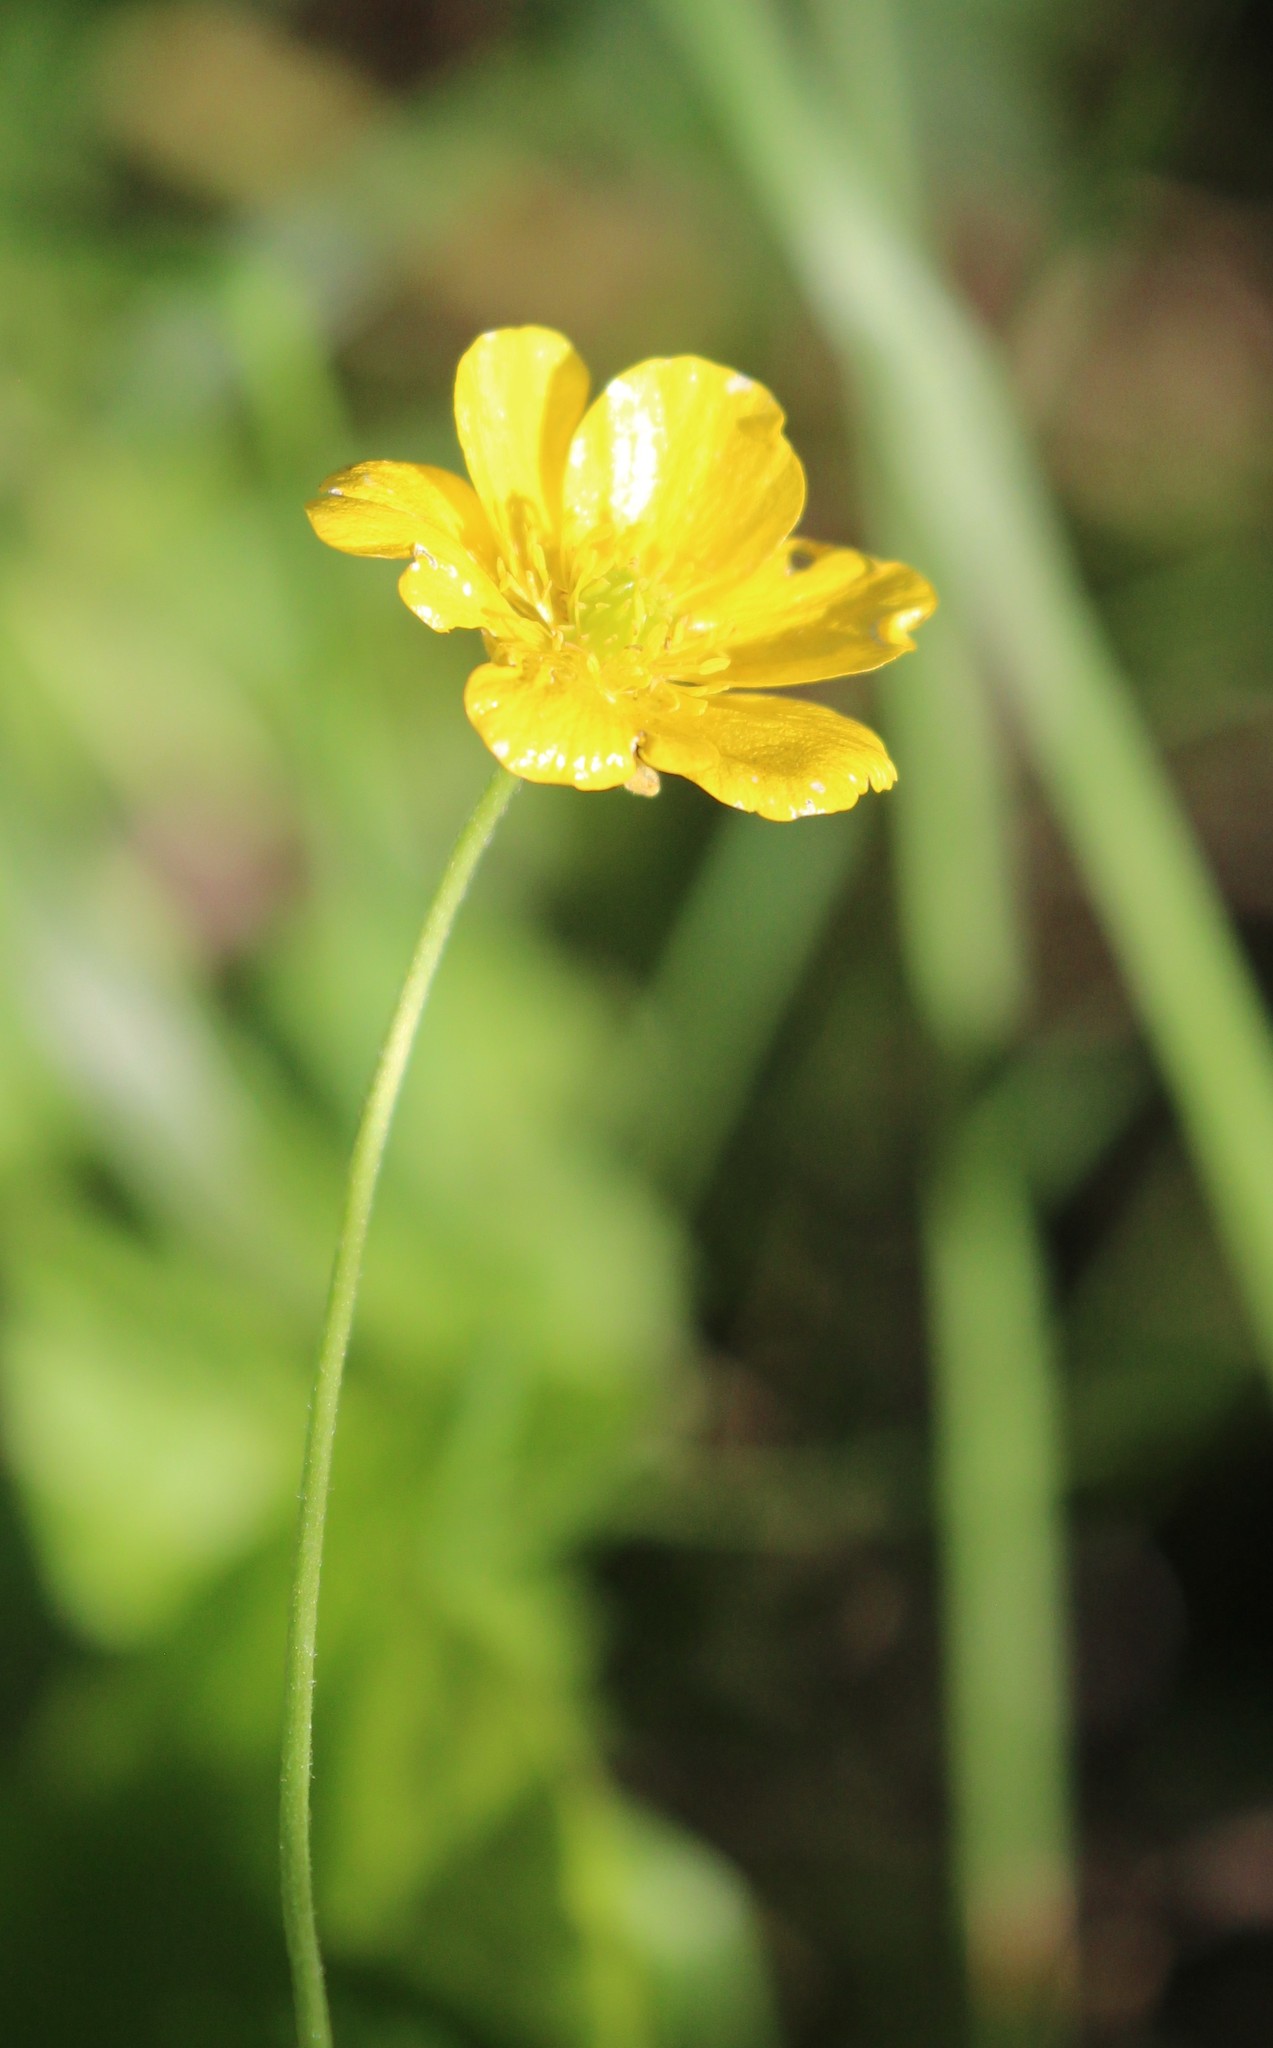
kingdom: Plantae
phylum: Tracheophyta
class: Magnoliopsida
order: Ranunculales
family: Ranunculaceae
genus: Ranunculus
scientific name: Ranunculus acris
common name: Meadow buttercup
